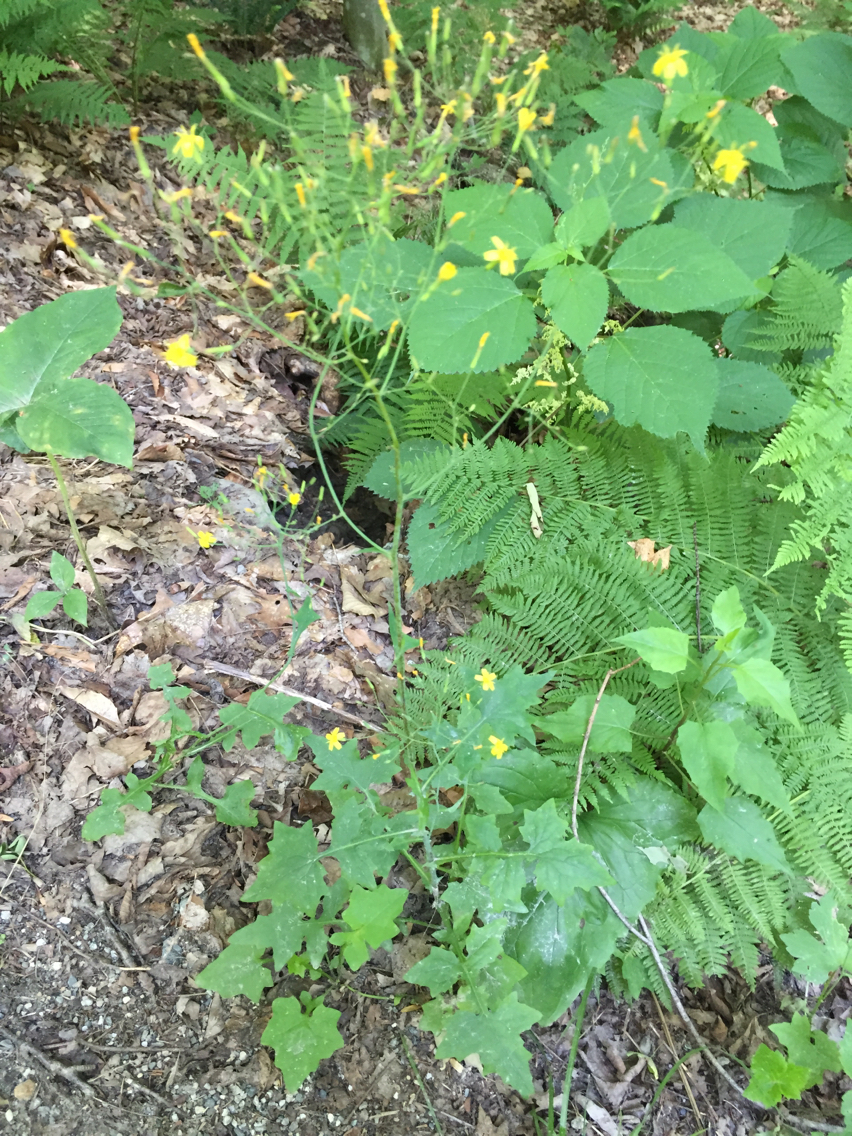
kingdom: Plantae
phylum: Tracheophyta
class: Magnoliopsida
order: Asterales
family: Asteraceae
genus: Mycelis
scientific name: Mycelis muralis
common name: Wall lettuce
